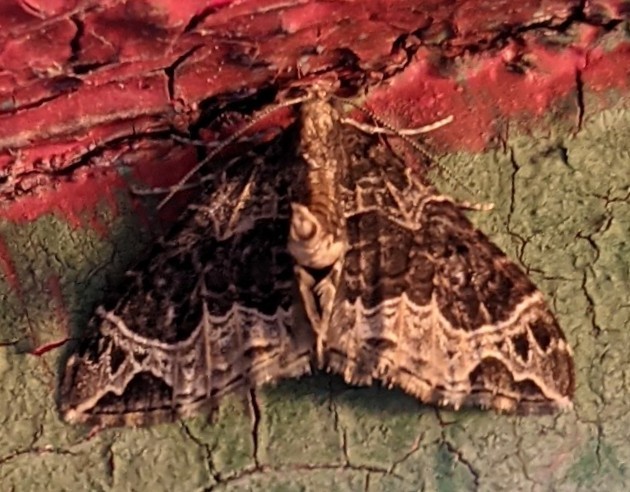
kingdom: Animalia
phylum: Arthropoda
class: Insecta
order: Lepidoptera
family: Geometridae
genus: Ecliptopera
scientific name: Ecliptopera silaceata
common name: Small phoenix
